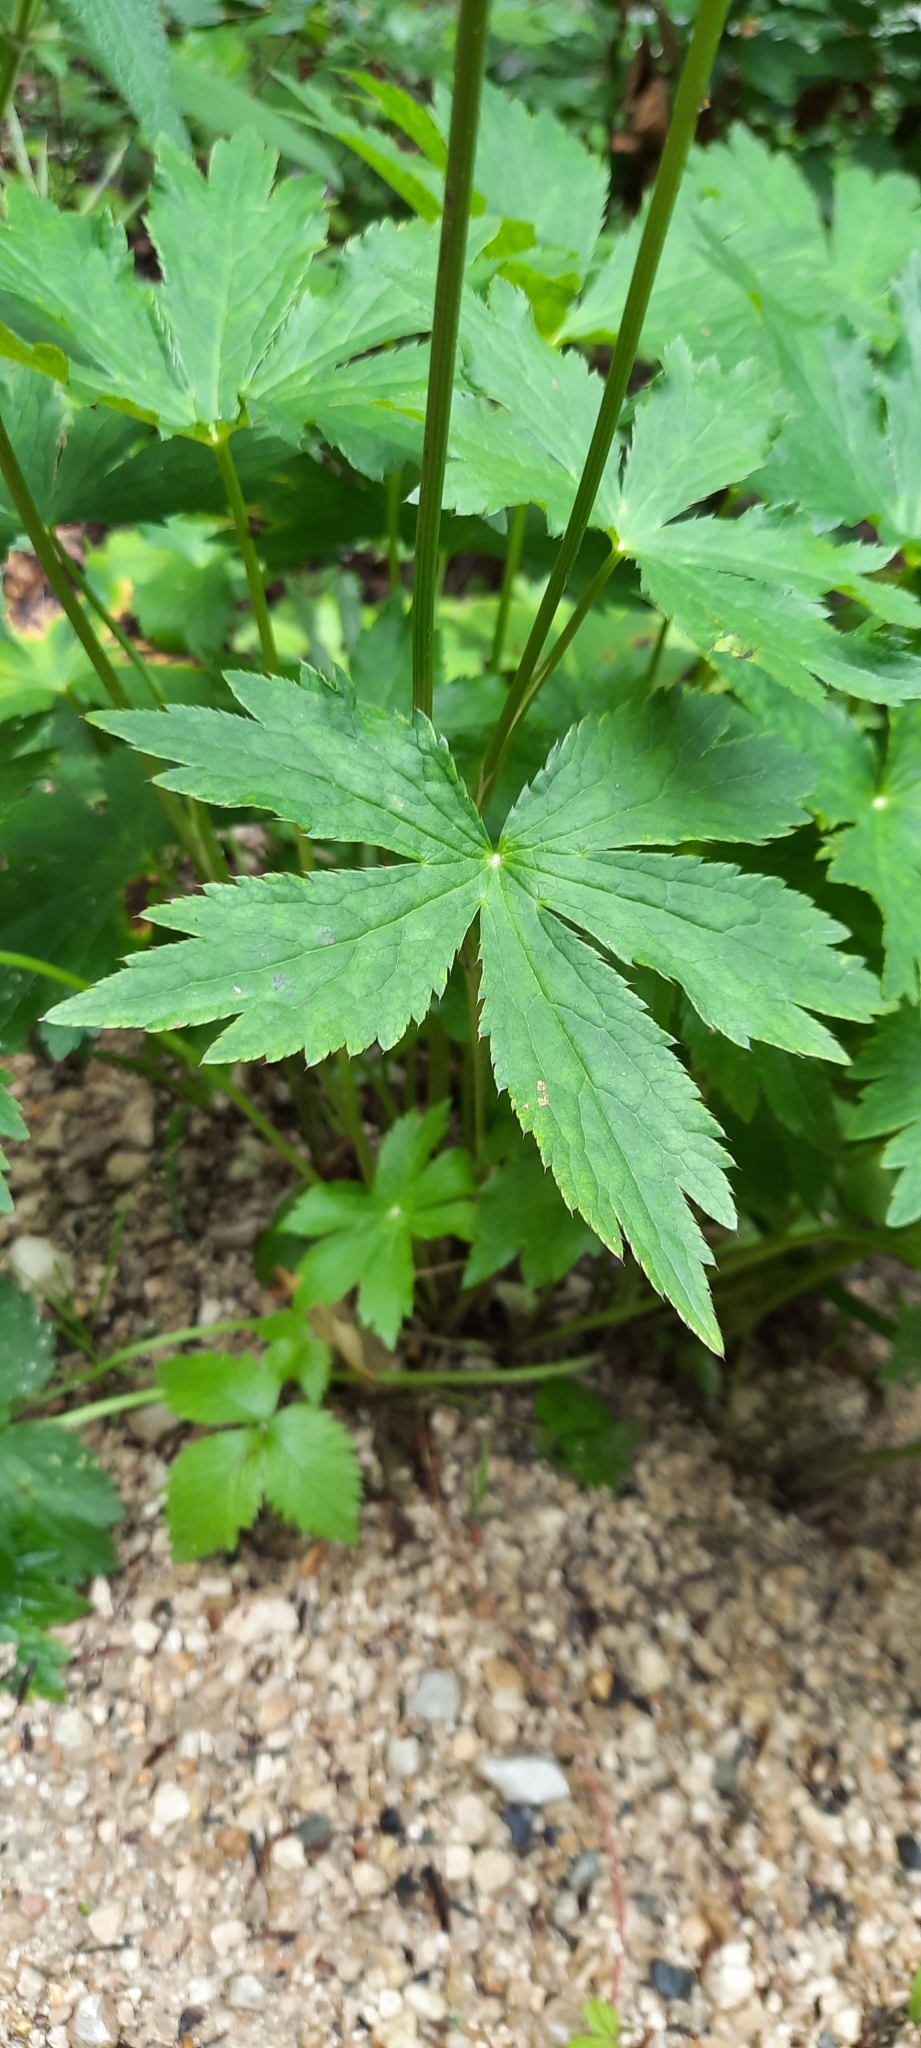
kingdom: Plantae
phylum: Tracheophyta
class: Magnoliopsida
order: Apiales
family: Apiaceae
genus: Astrantia
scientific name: Astrantia major
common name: Greater masterwort
